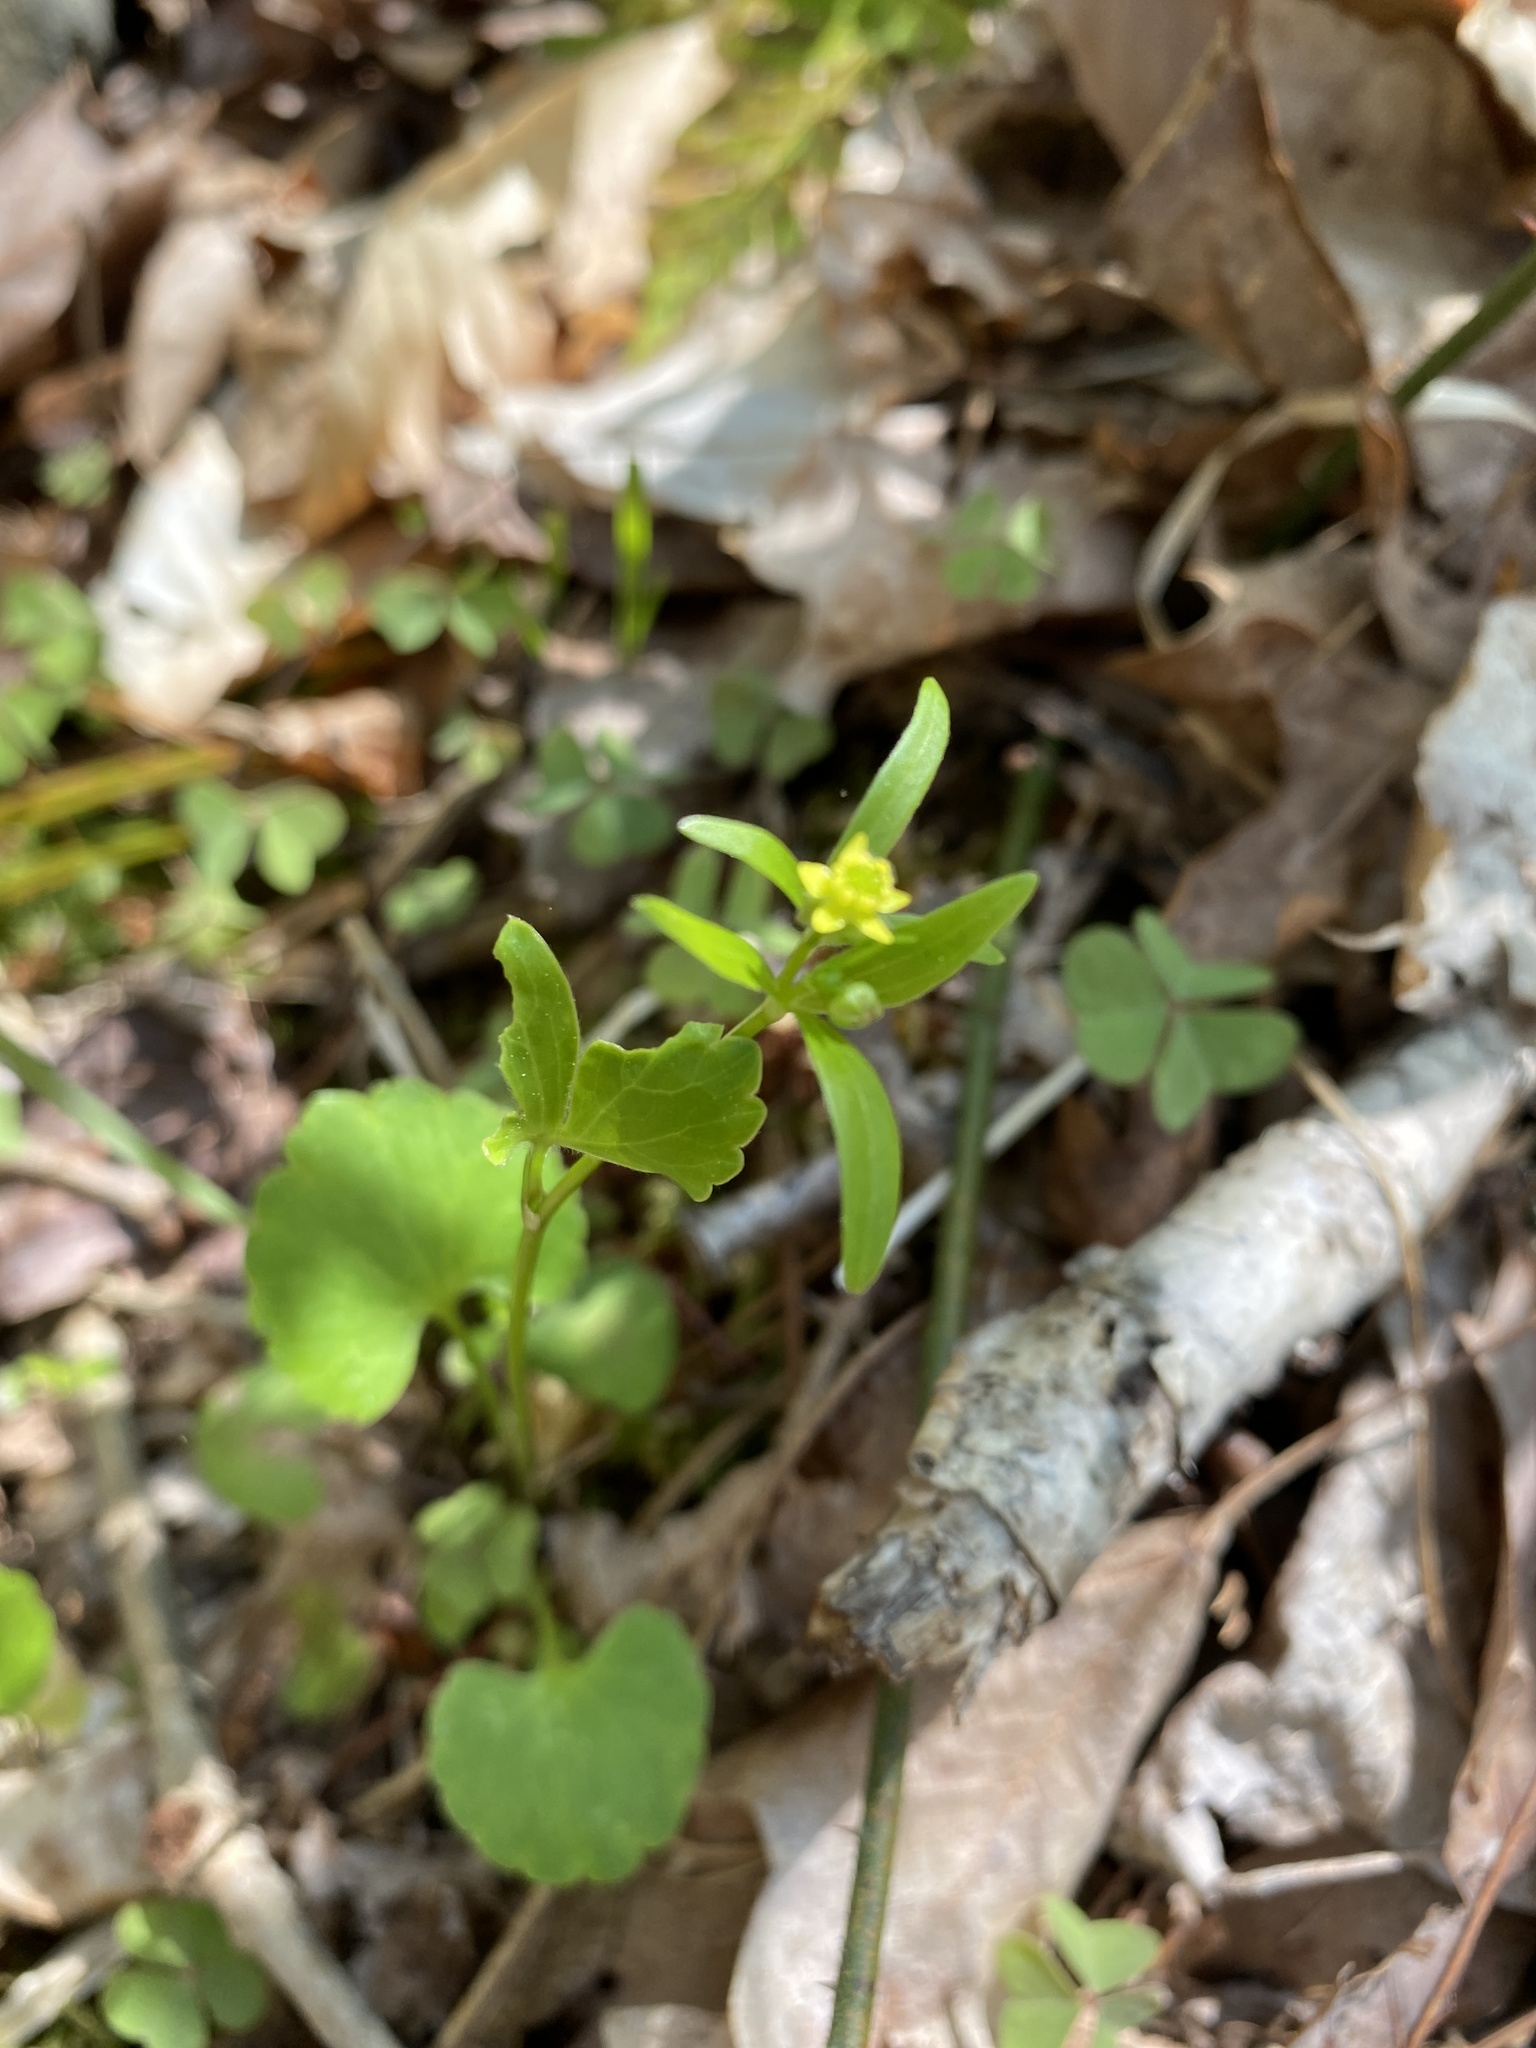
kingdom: Plantae
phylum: Tracheophyta
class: Magnoliopsida
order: Ranunculales
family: Ranunculaceae
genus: Ranunculus
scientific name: Ranunculus abortivus
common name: Early wood buttercup
